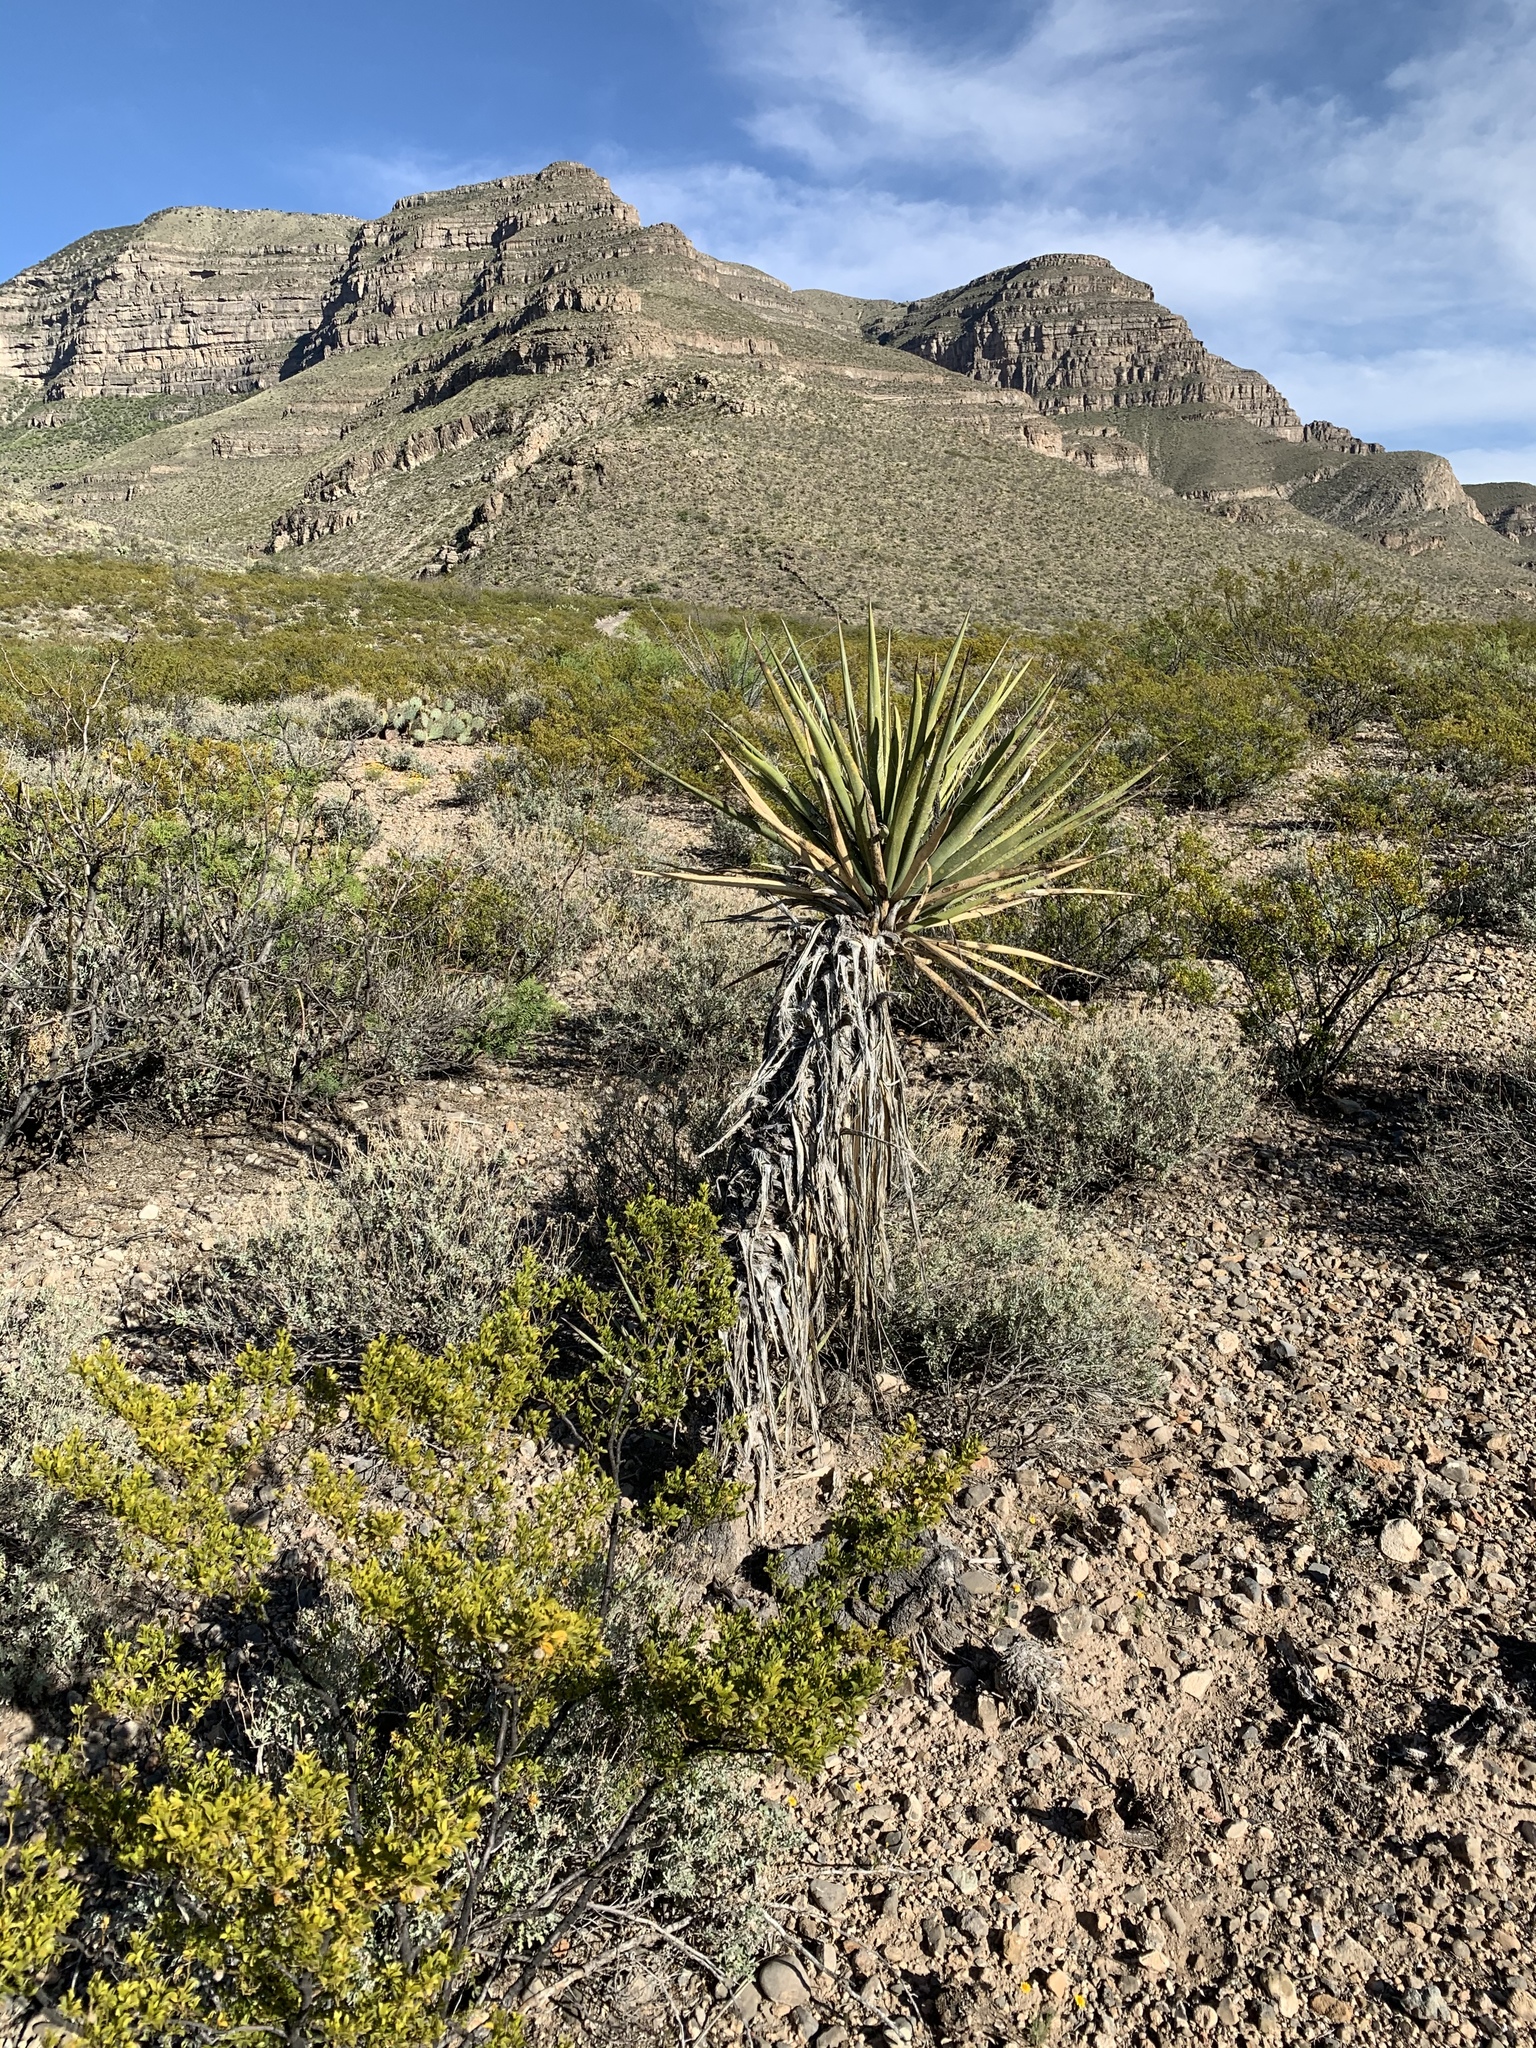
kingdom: Plantae
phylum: Tracheophyta
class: Liliopsida
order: Asparagales
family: Asparagaceae
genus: Yucca
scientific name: Yucca treculiana
